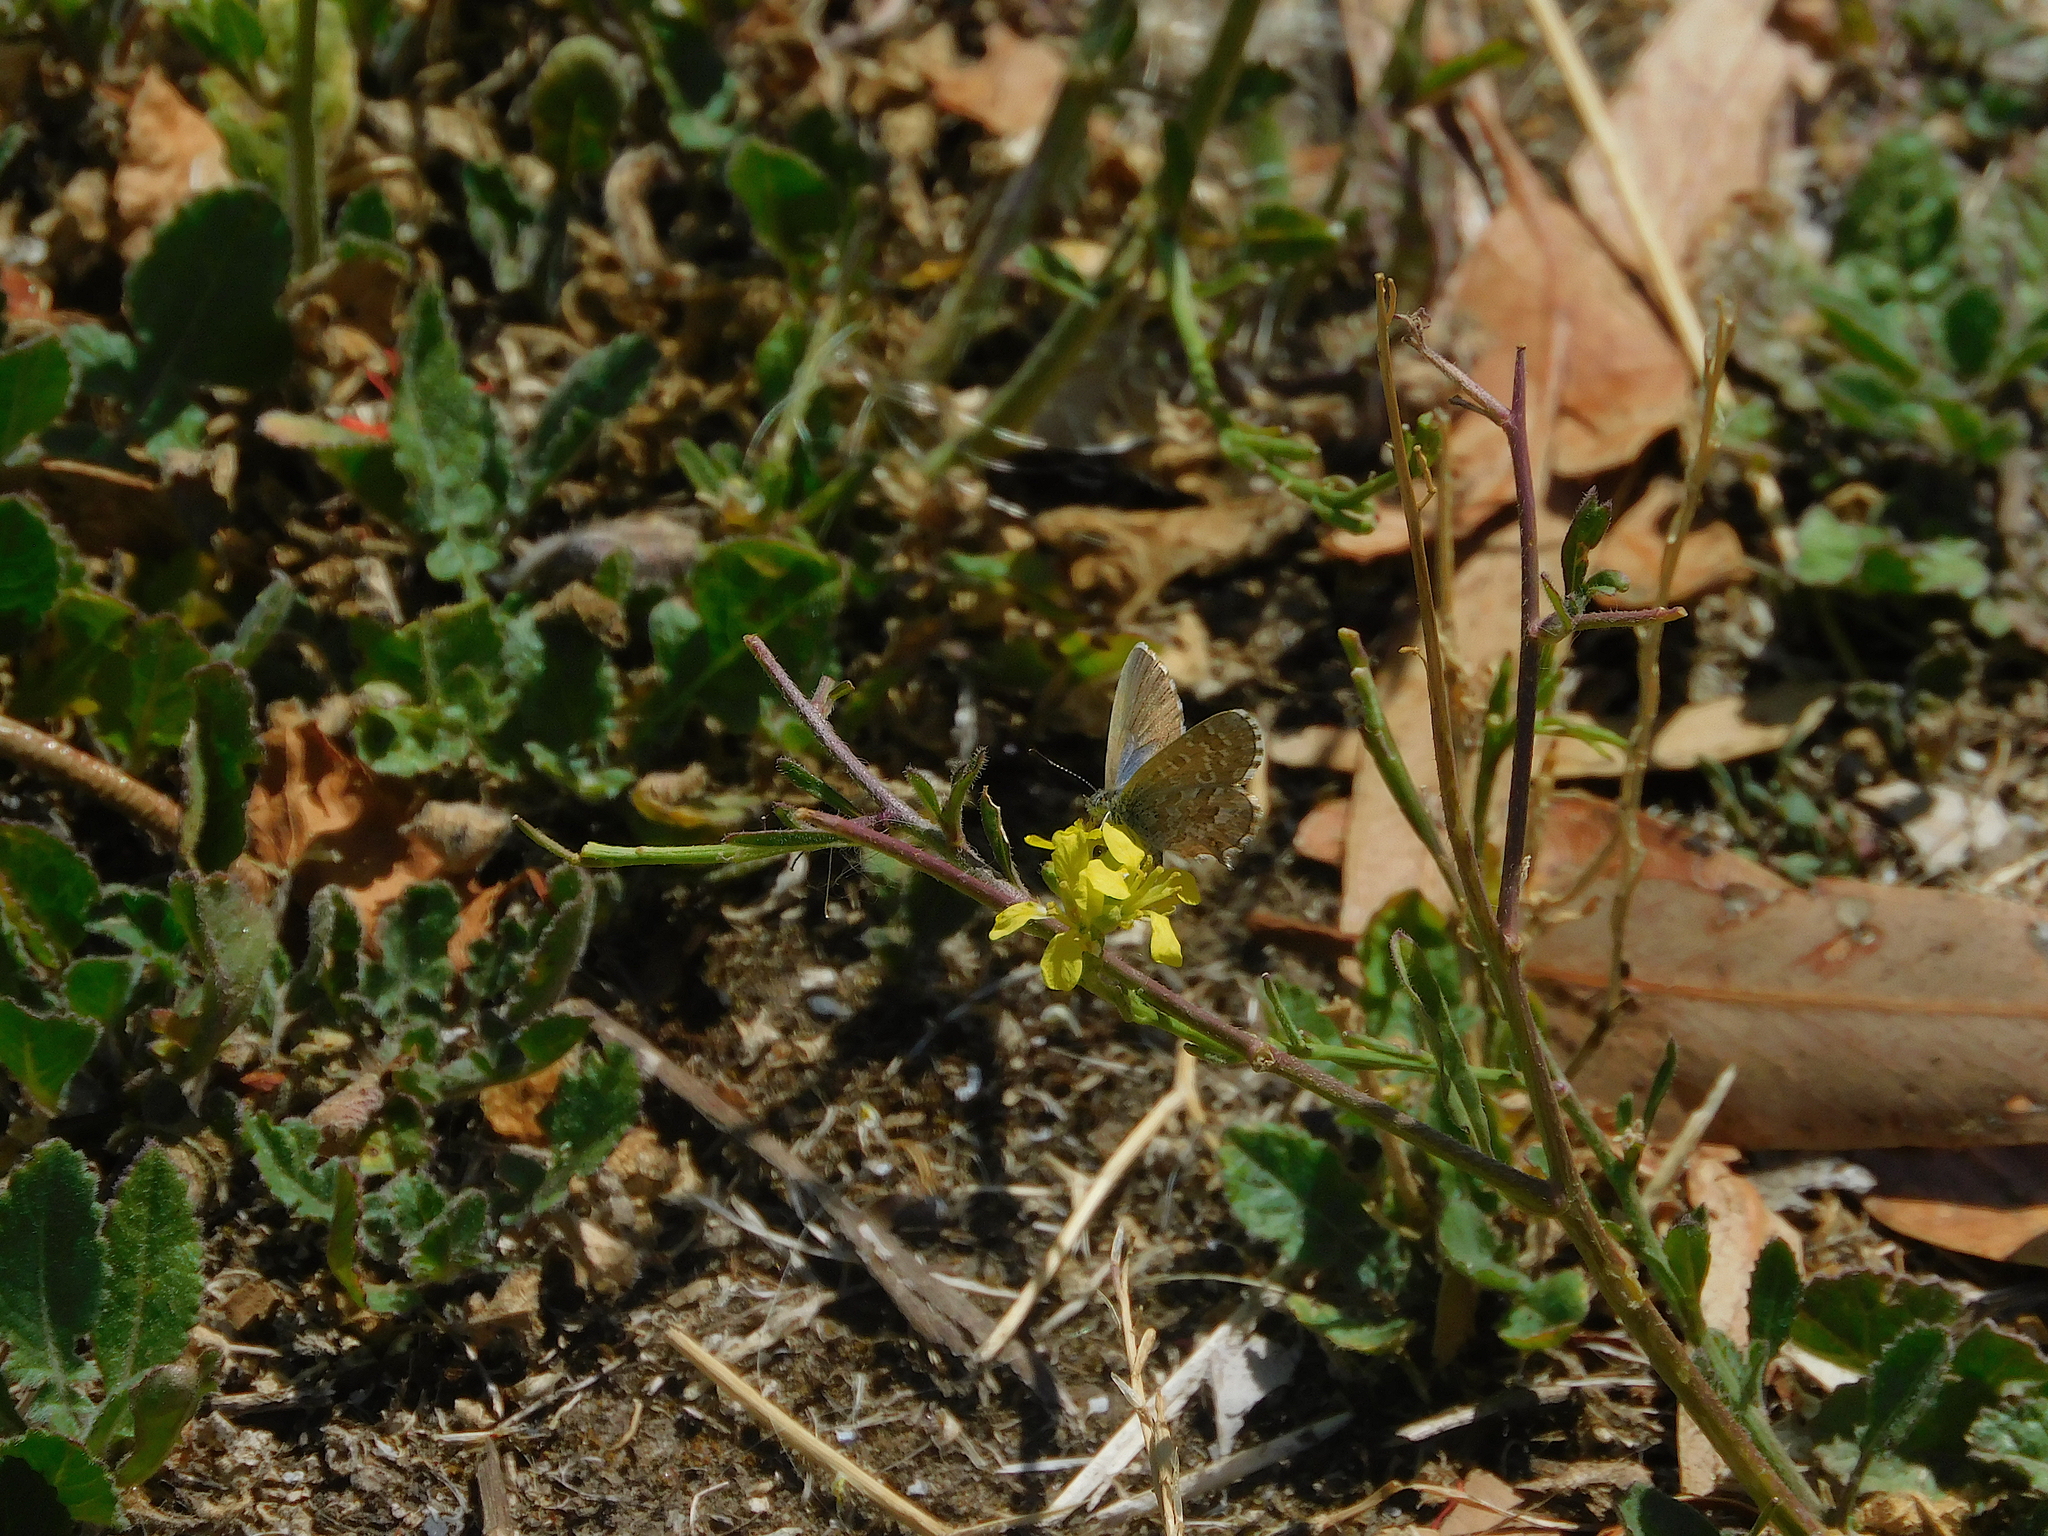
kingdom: Animalia
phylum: Arthropoda
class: Insecta
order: Lepidoptera
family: Lycaenidae
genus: Theclinesthes
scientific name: Theclinesthes serpentata
